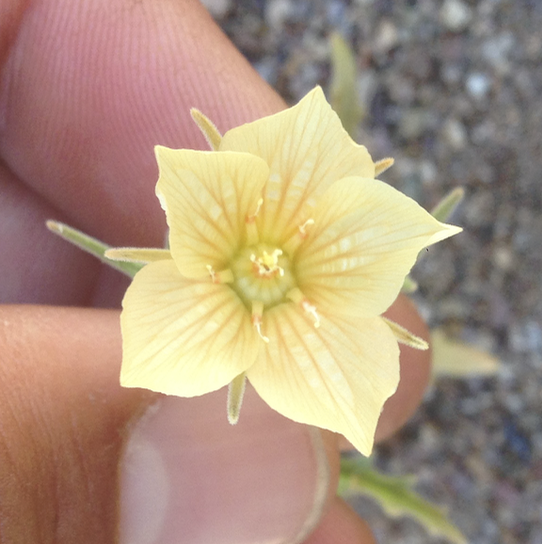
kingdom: Plantae
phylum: Tracheophyta
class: Magnoliopsida
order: Cornales
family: Loasaceae
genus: Mentzelia
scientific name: Mentzelia hirsutissima
